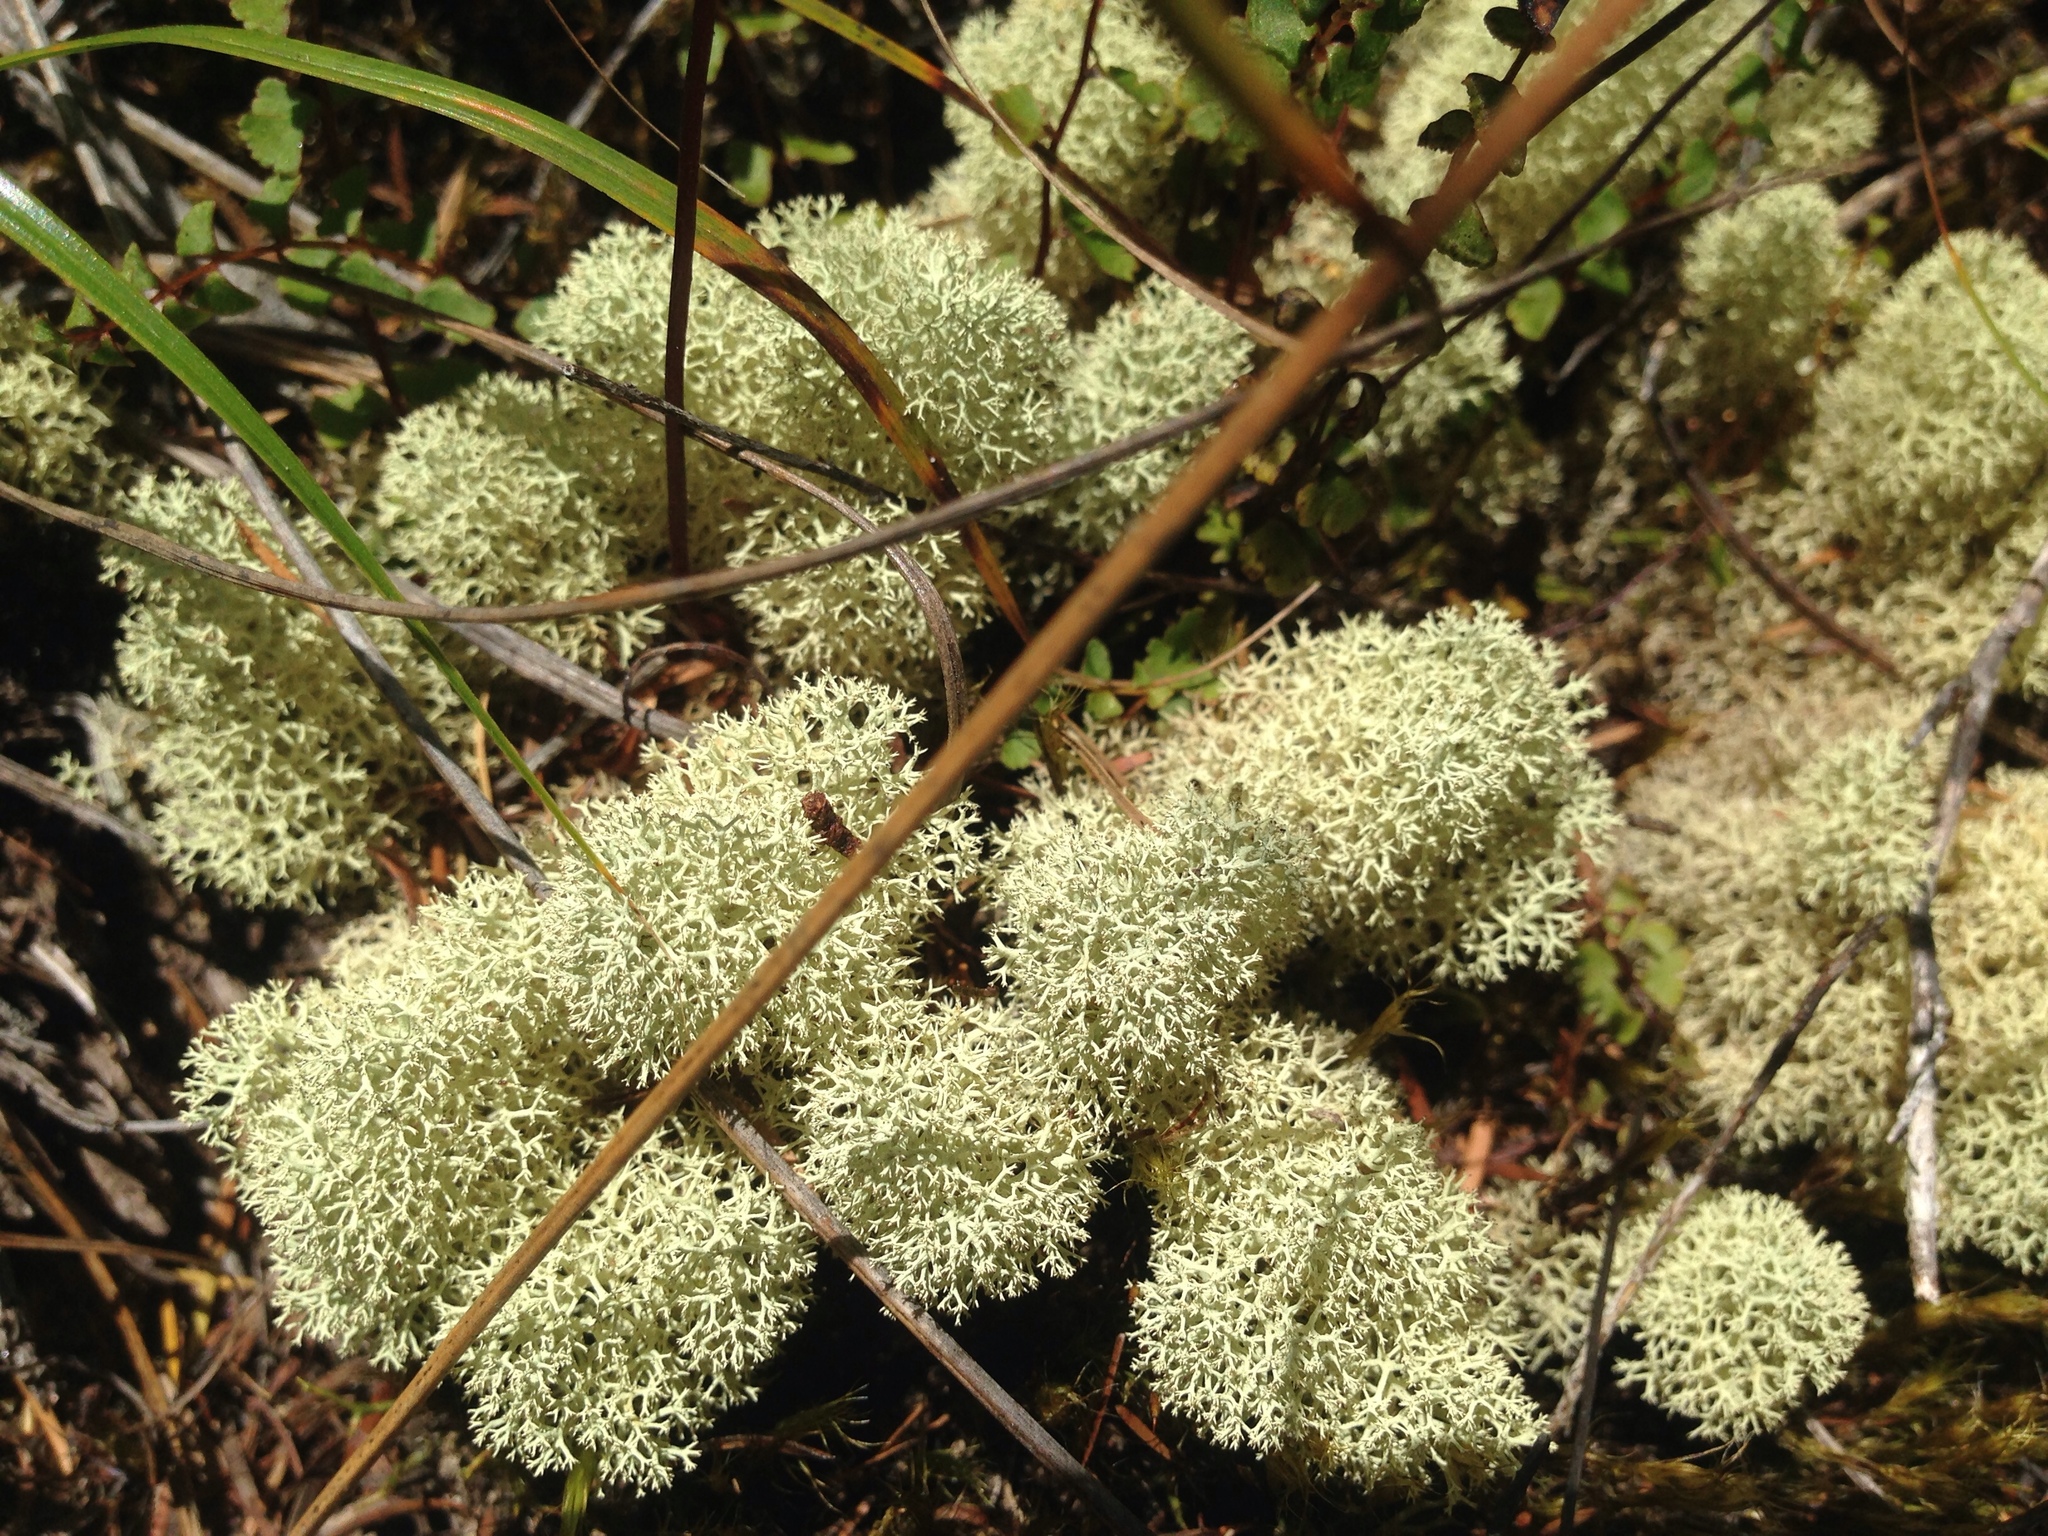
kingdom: Fungi
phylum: Ascomycota
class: Lecanoromycetes
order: Lecanorales
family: Cladoniaceae
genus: Cladonia
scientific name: Cladonia confusa
